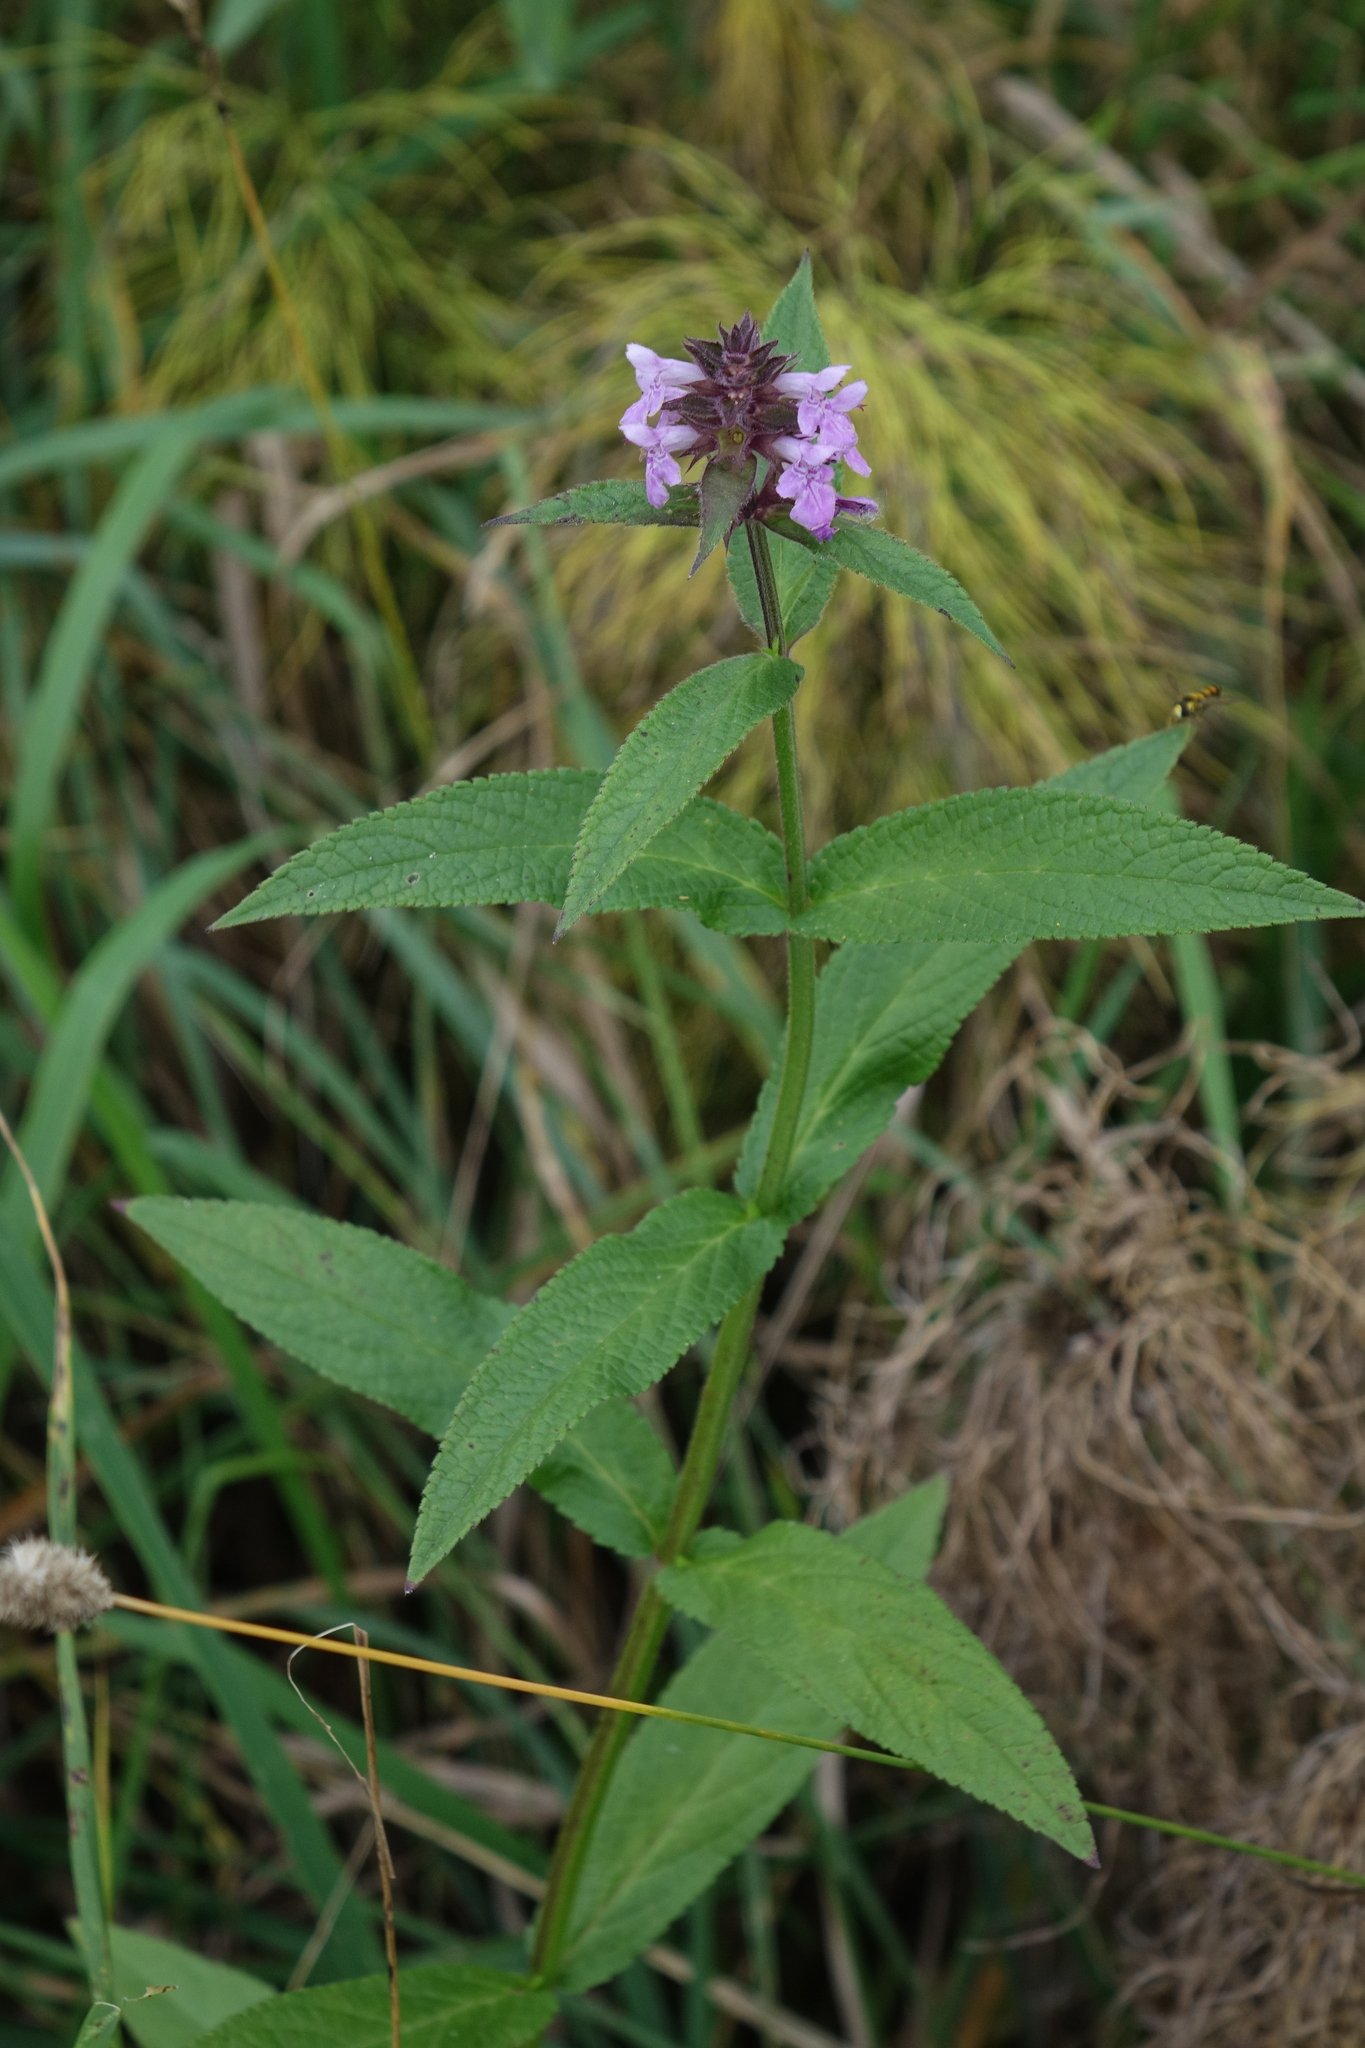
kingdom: Plantae
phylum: Tracheophyta
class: Magnoliopsida
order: Lamiales
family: Lamiaceae
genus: Stachys
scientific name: Stachys palustris
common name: Marsh woundwort
